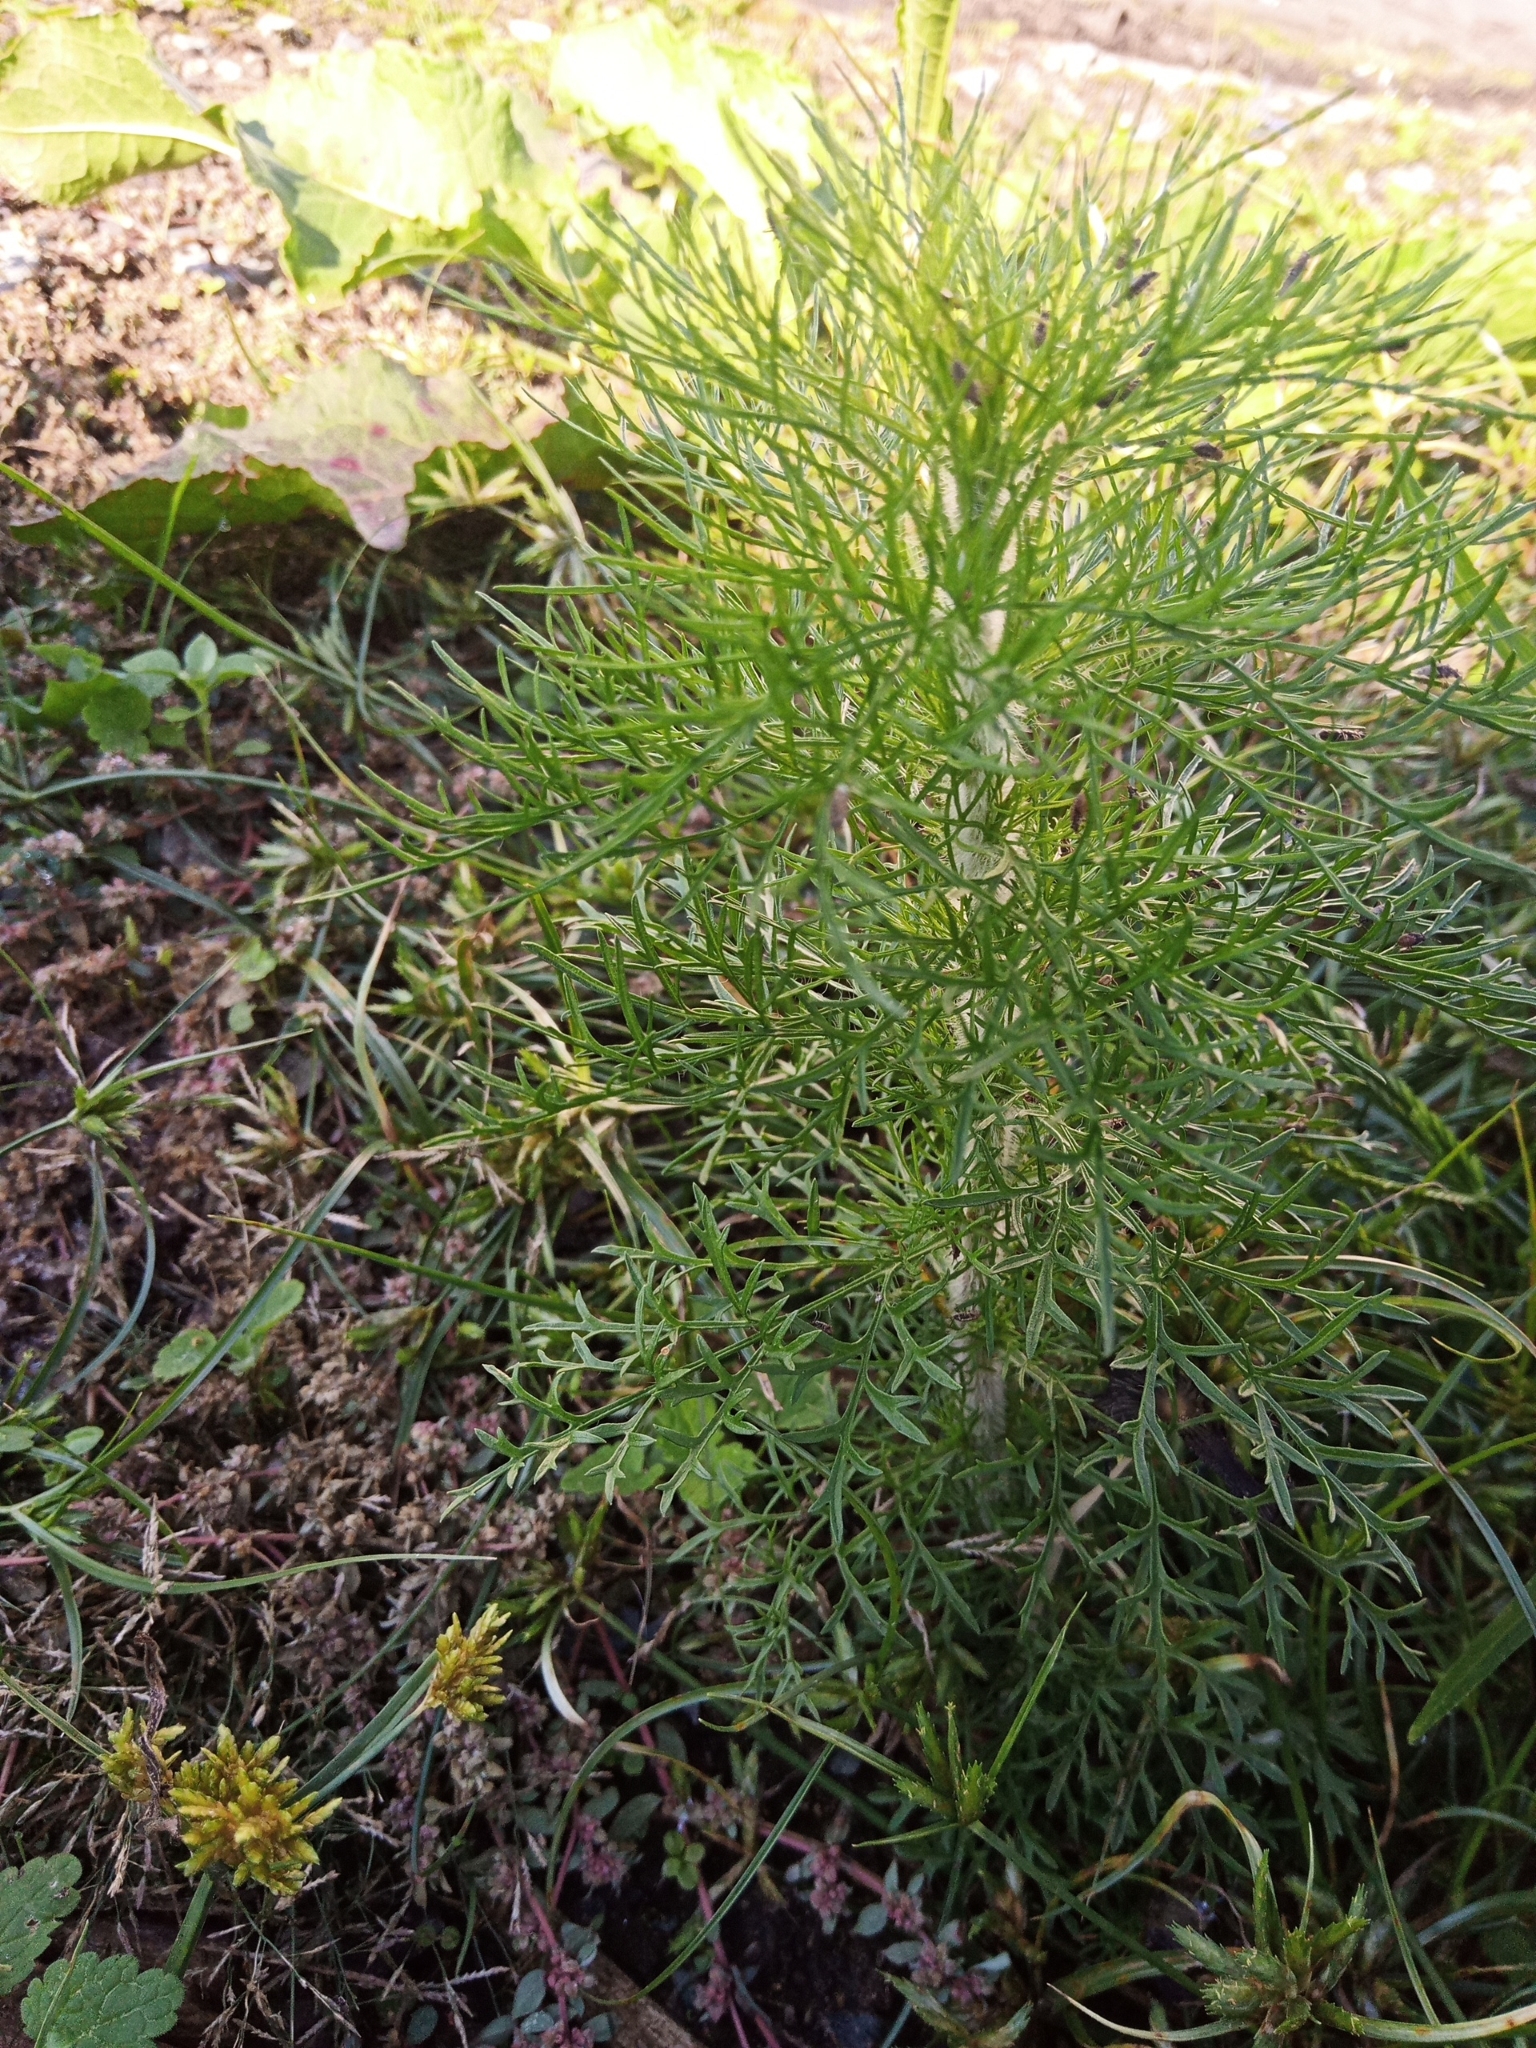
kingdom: Plantae
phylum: Tracheophyta
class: Magnoliopsida
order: Asterales
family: Asteraceae
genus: Eupatorium
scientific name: Eupatorium capillifolium
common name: Dog-fennel
